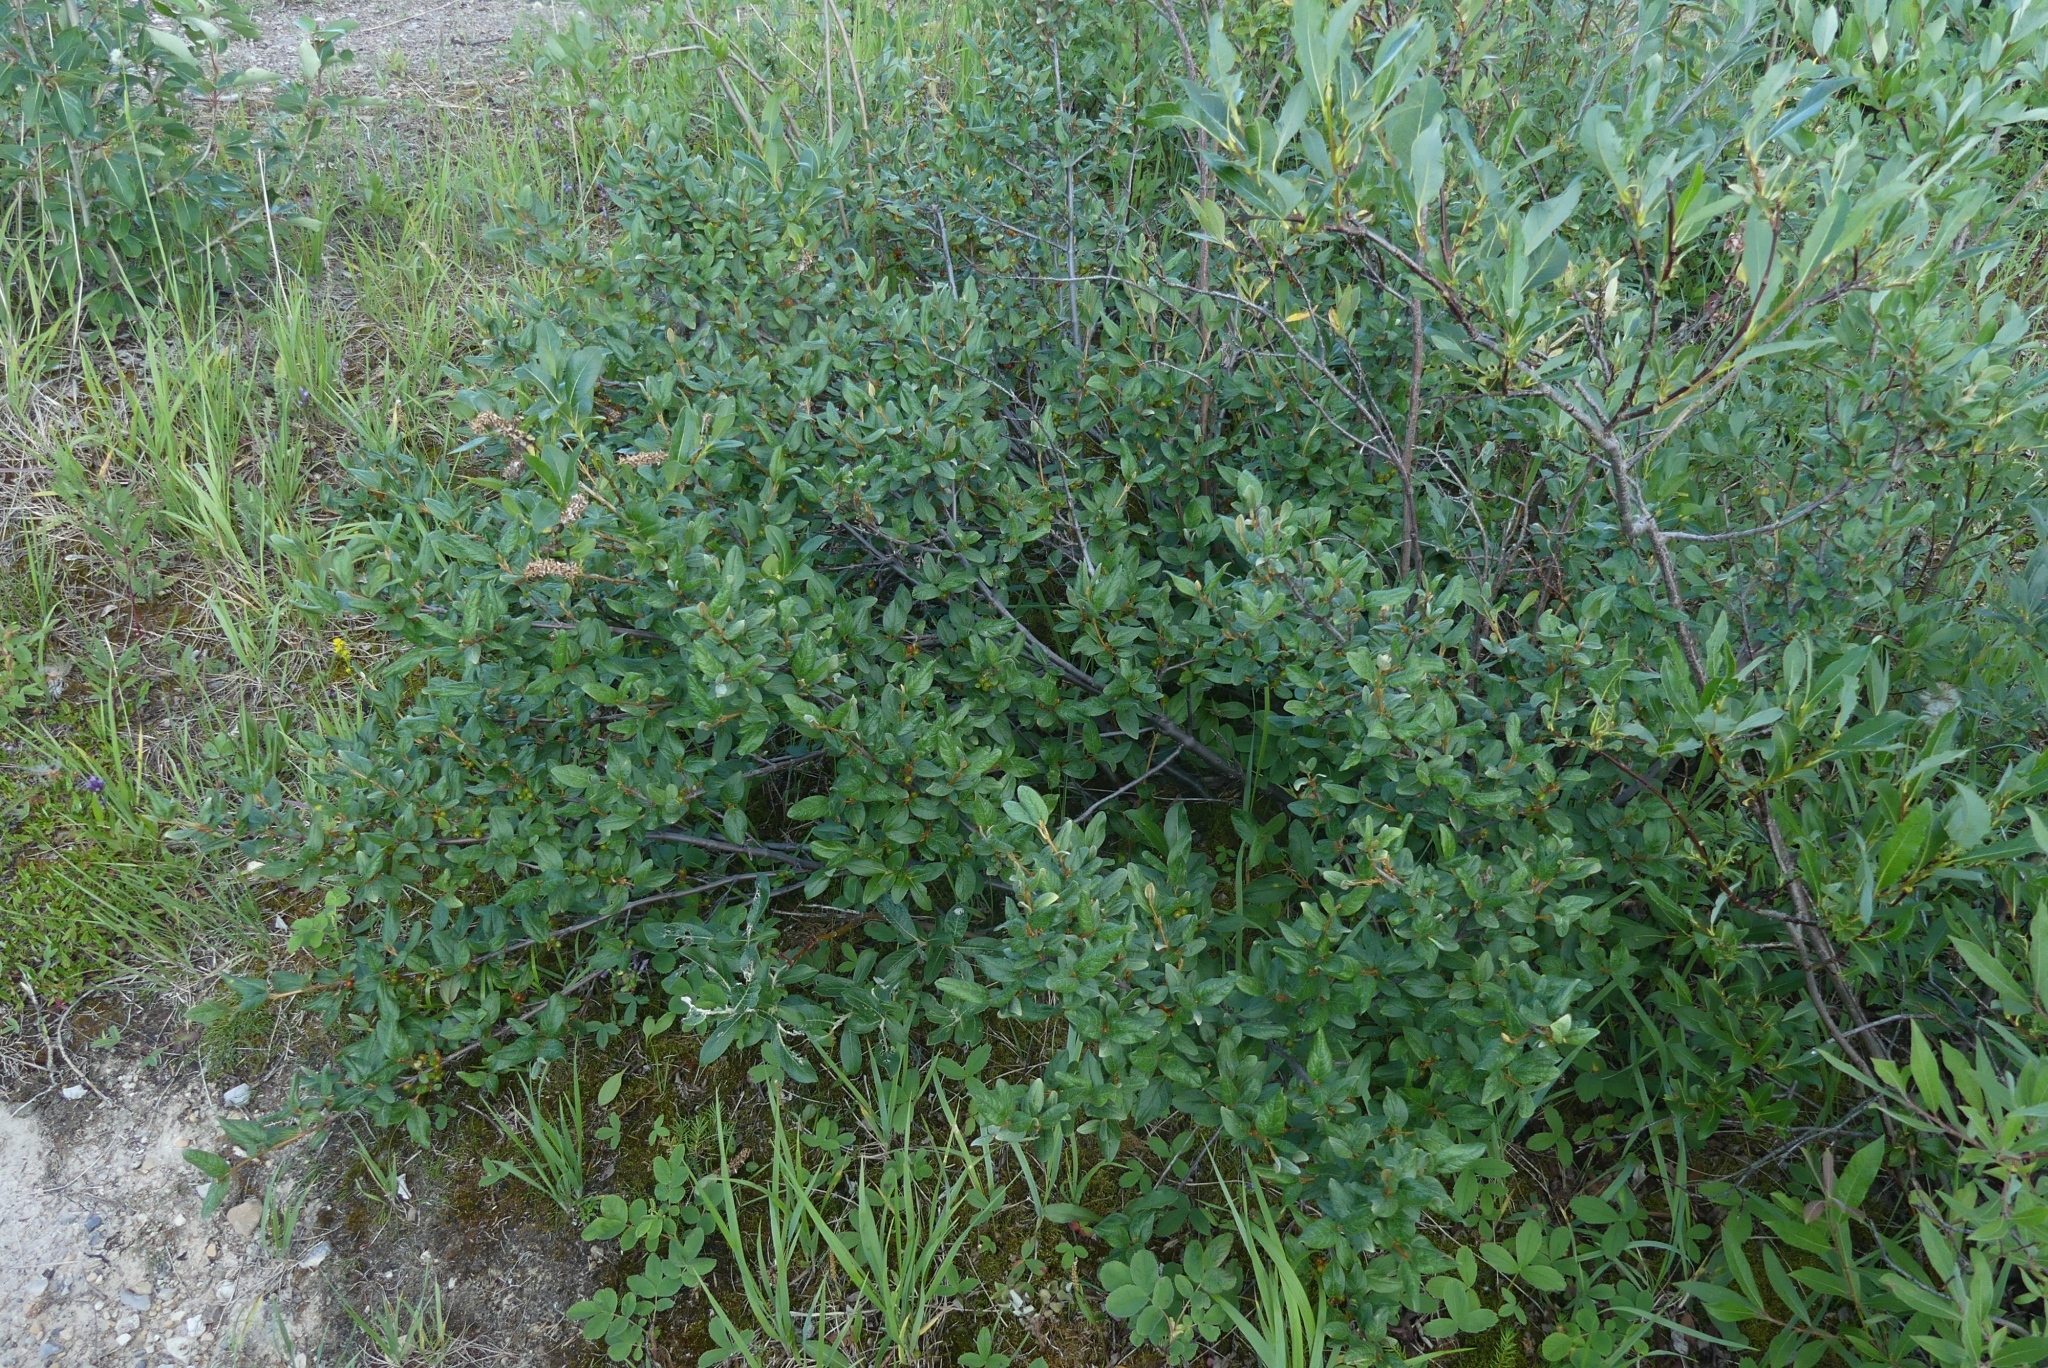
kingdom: Plantae
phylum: Tracheophyta
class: Magnoliopsida
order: Rosales
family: Elaeagnaceae
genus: Shepherdia
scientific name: Shepherdia canadensis
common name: Soapberry
